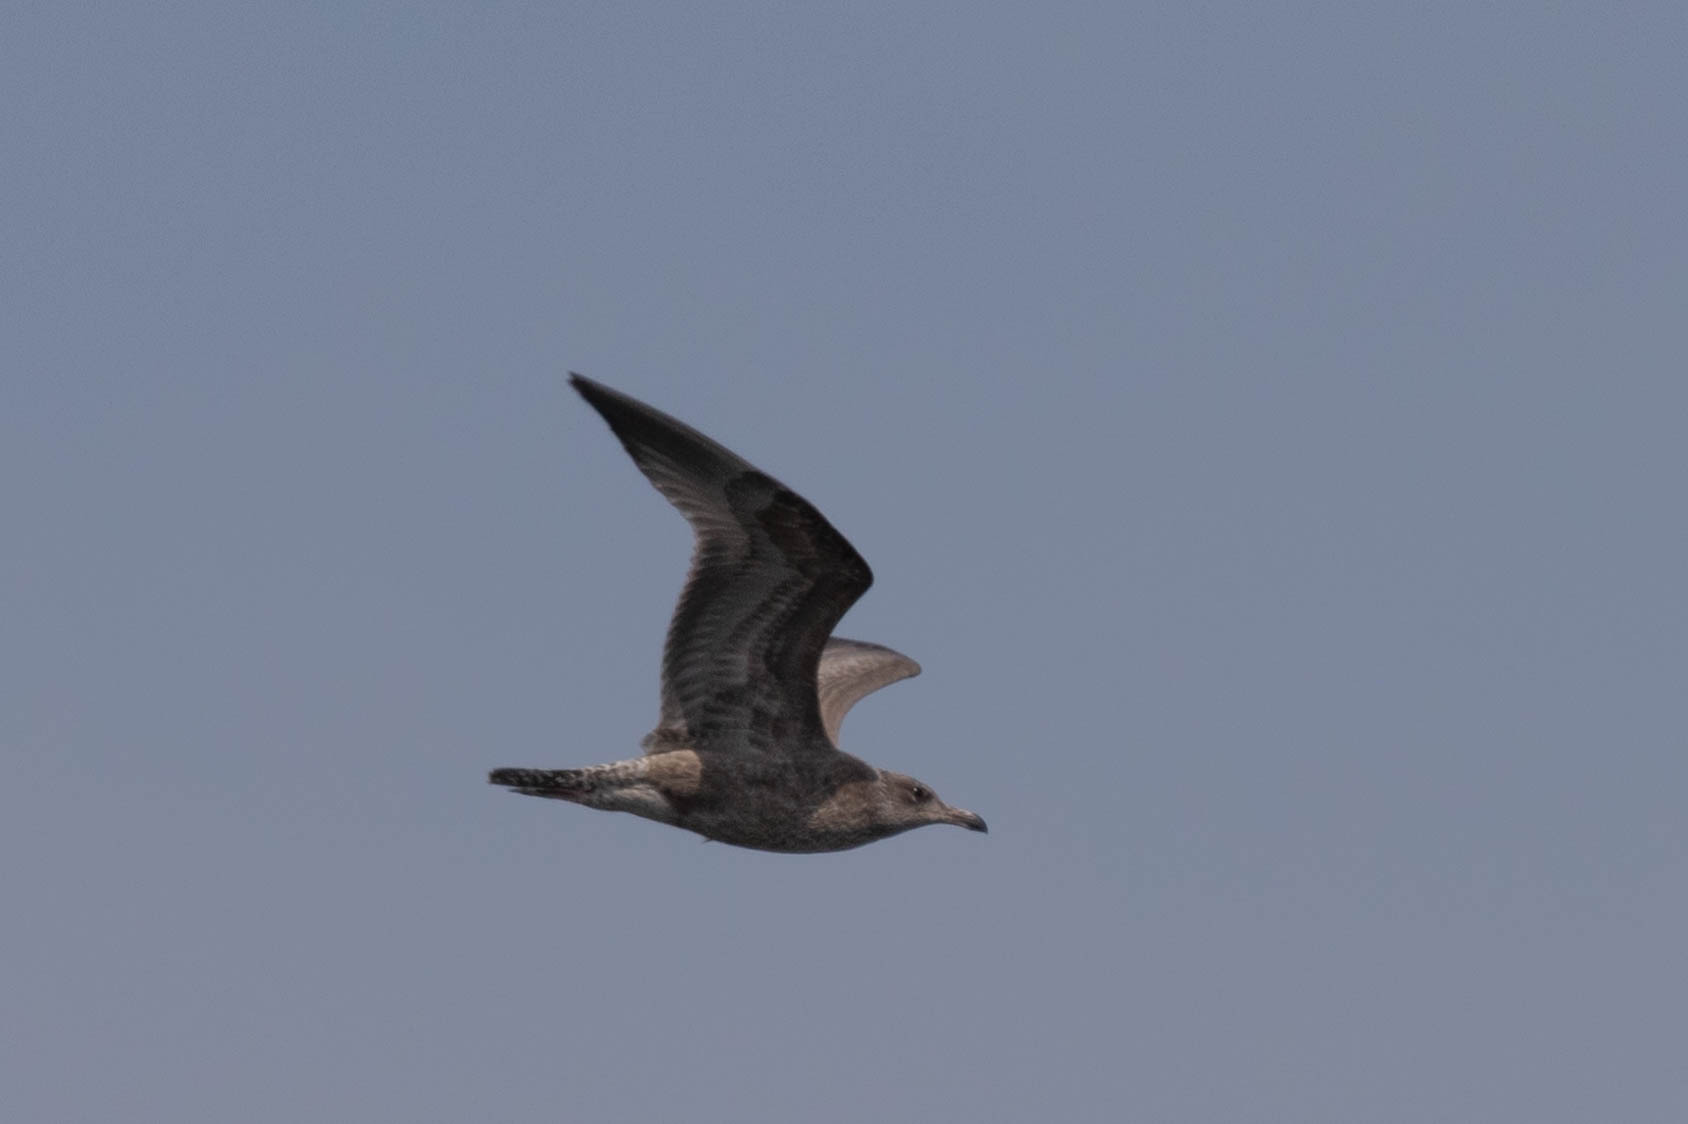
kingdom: Animalia
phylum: Chordata
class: Aves
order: Charadriiformes
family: Laridae
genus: Larus
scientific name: Larus argentatus
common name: Herring gull
